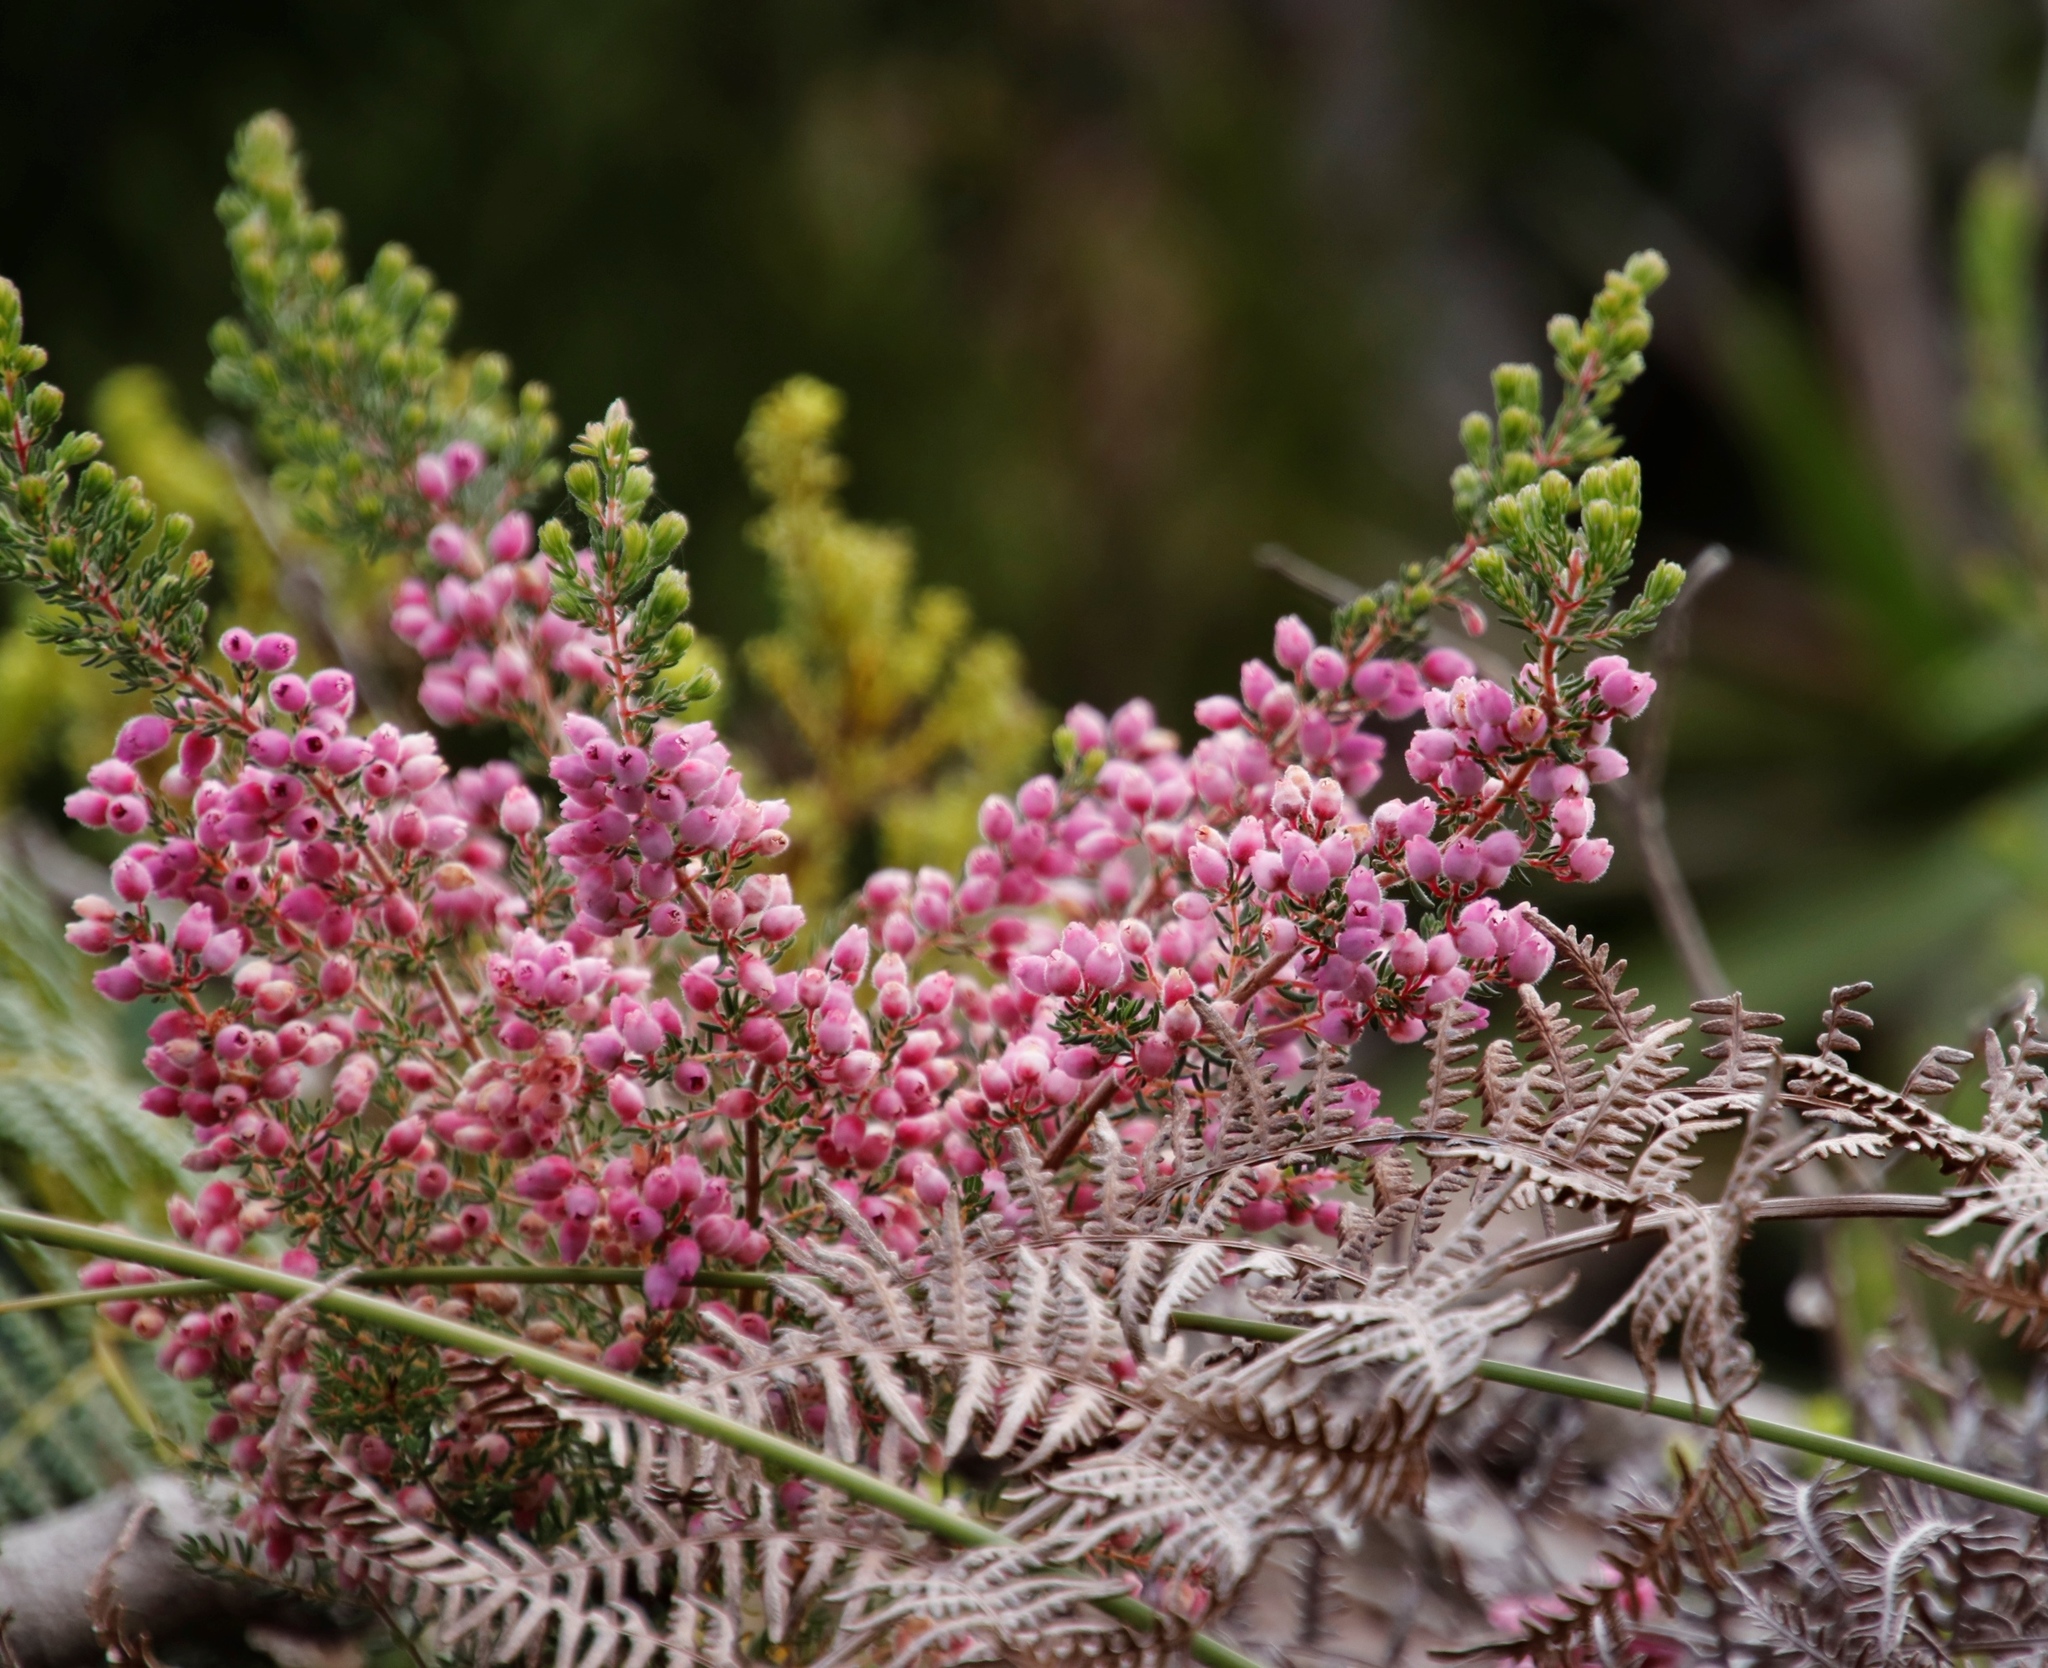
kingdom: Plantae
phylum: Tracheophyta
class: Magnoliopsida
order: Ericales
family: Ericaceae
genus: Erica
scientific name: Erica hirtiflora
